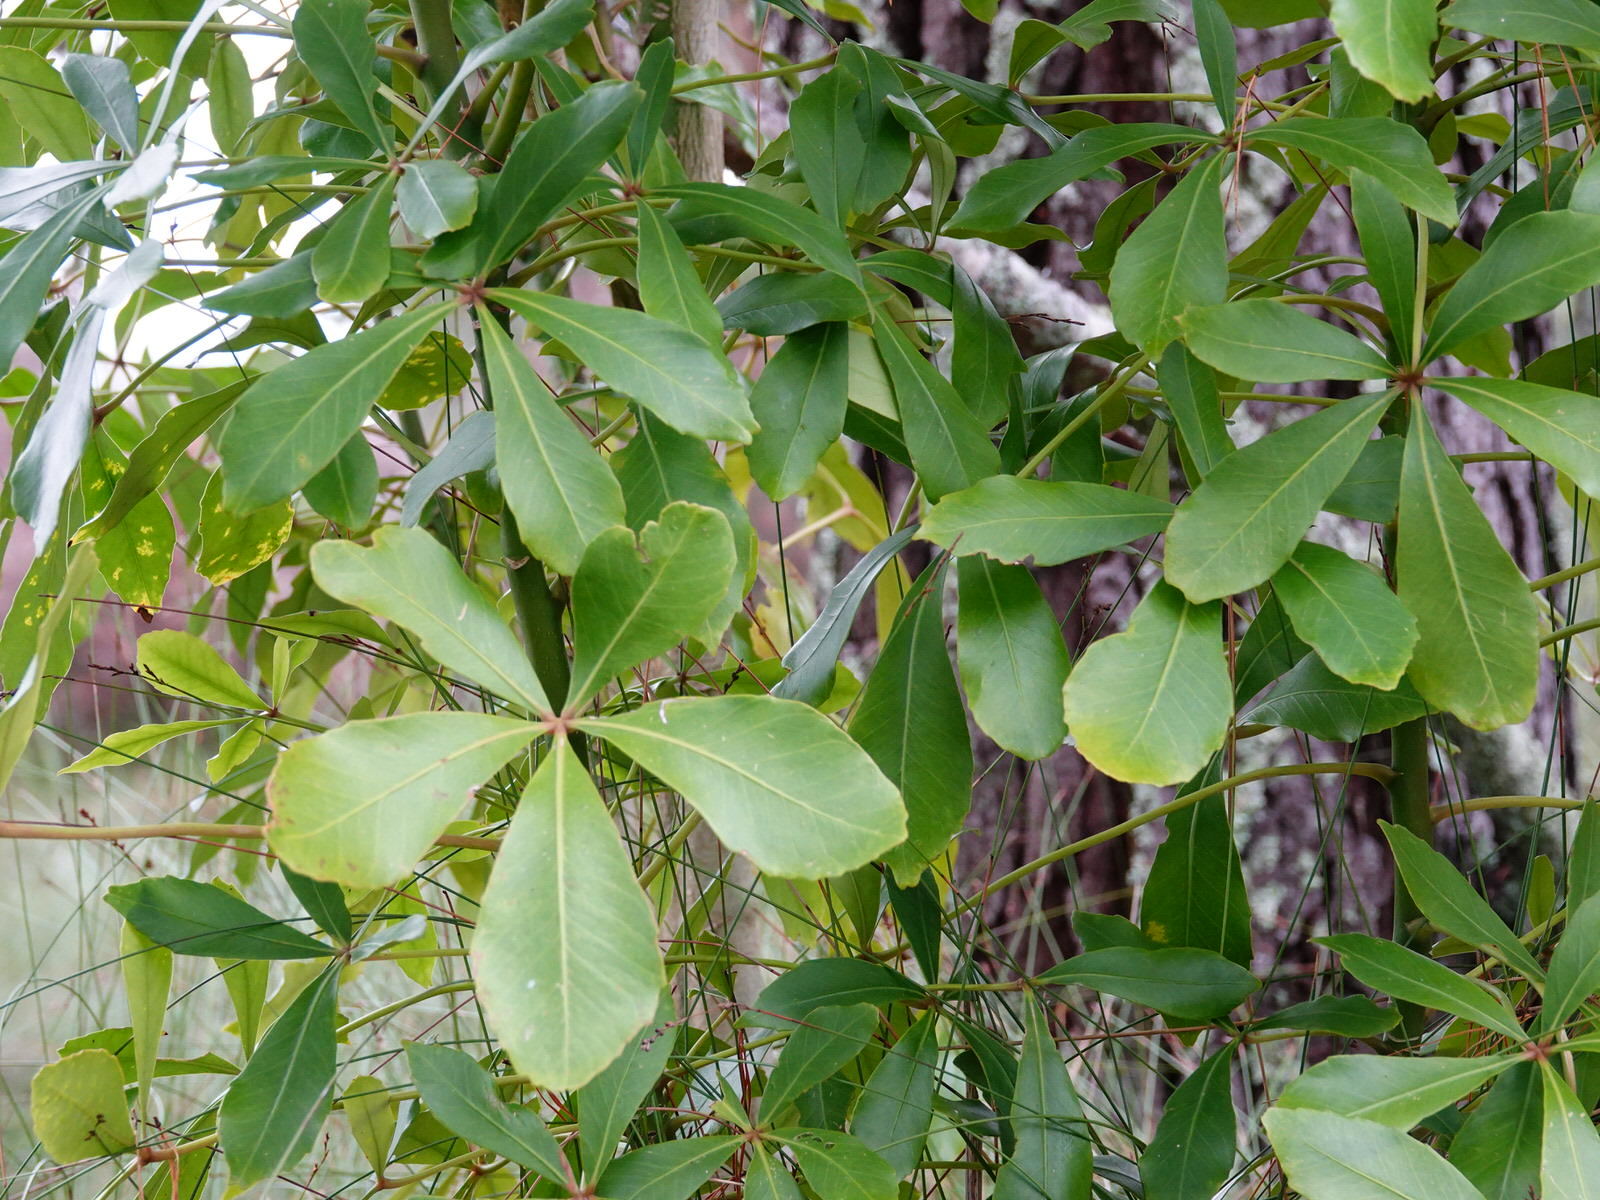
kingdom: Plantae
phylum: Tracheophyta
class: Magnoliopsida
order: Apiales
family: Araliaceae
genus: Pseudopanax
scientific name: Pseudopanax lessonii
